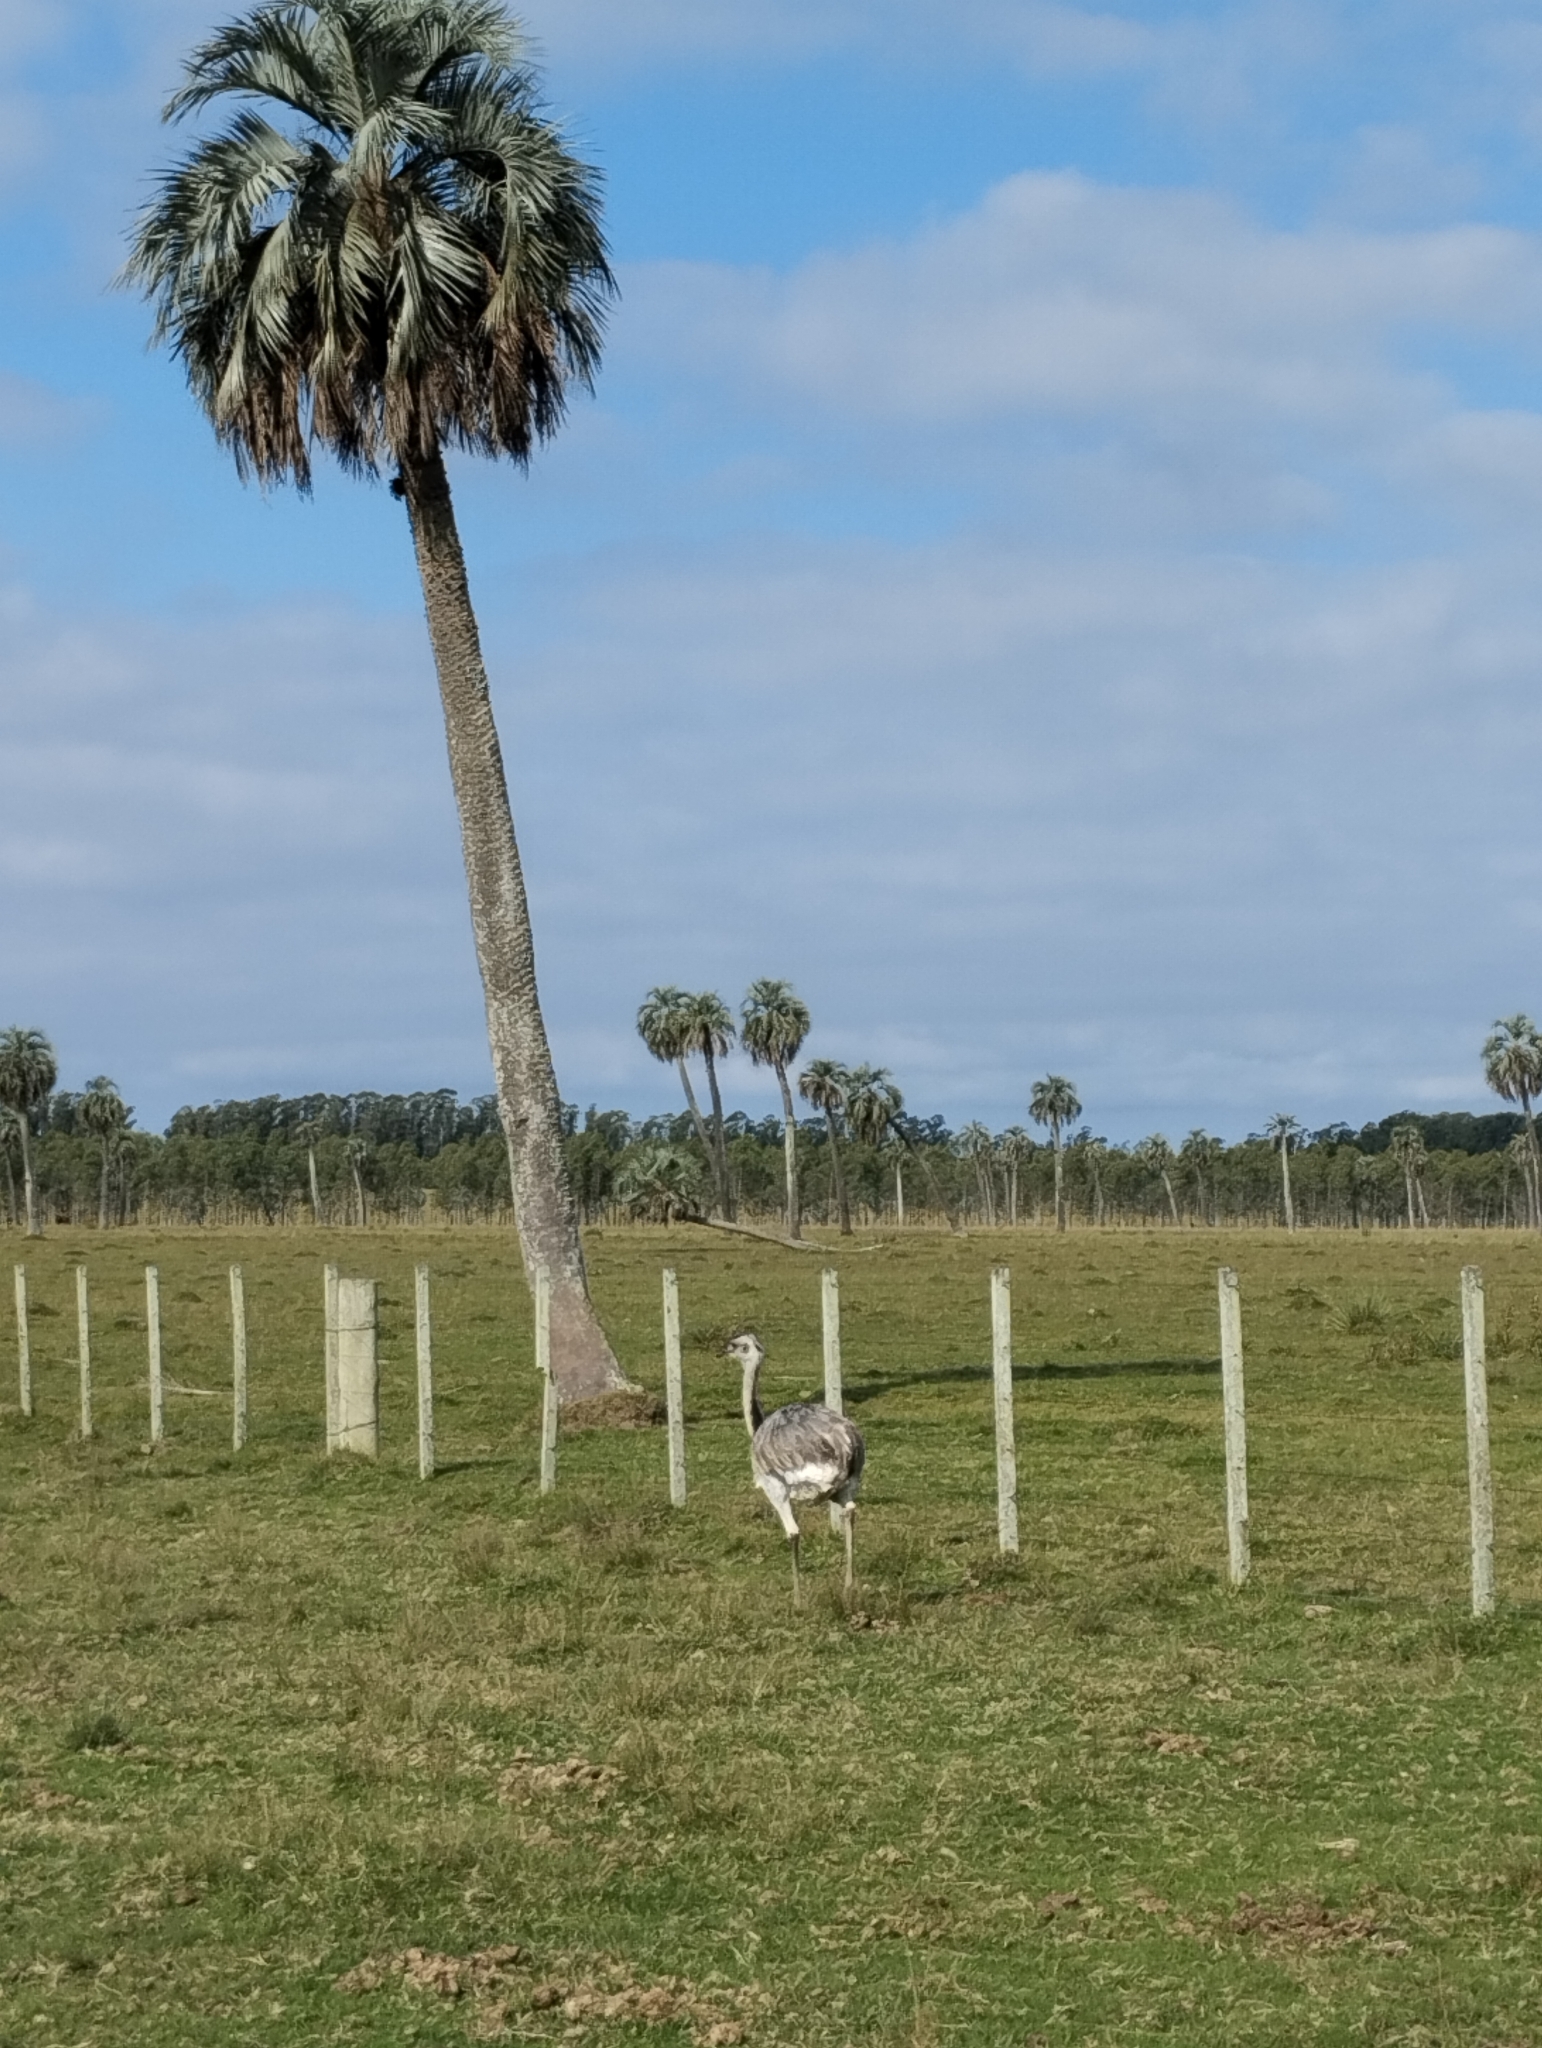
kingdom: Animalia
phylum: Chordata
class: Aves
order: Rheiformes
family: Rheidae
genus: Rhea
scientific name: Rhea americana
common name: Greater rhea
